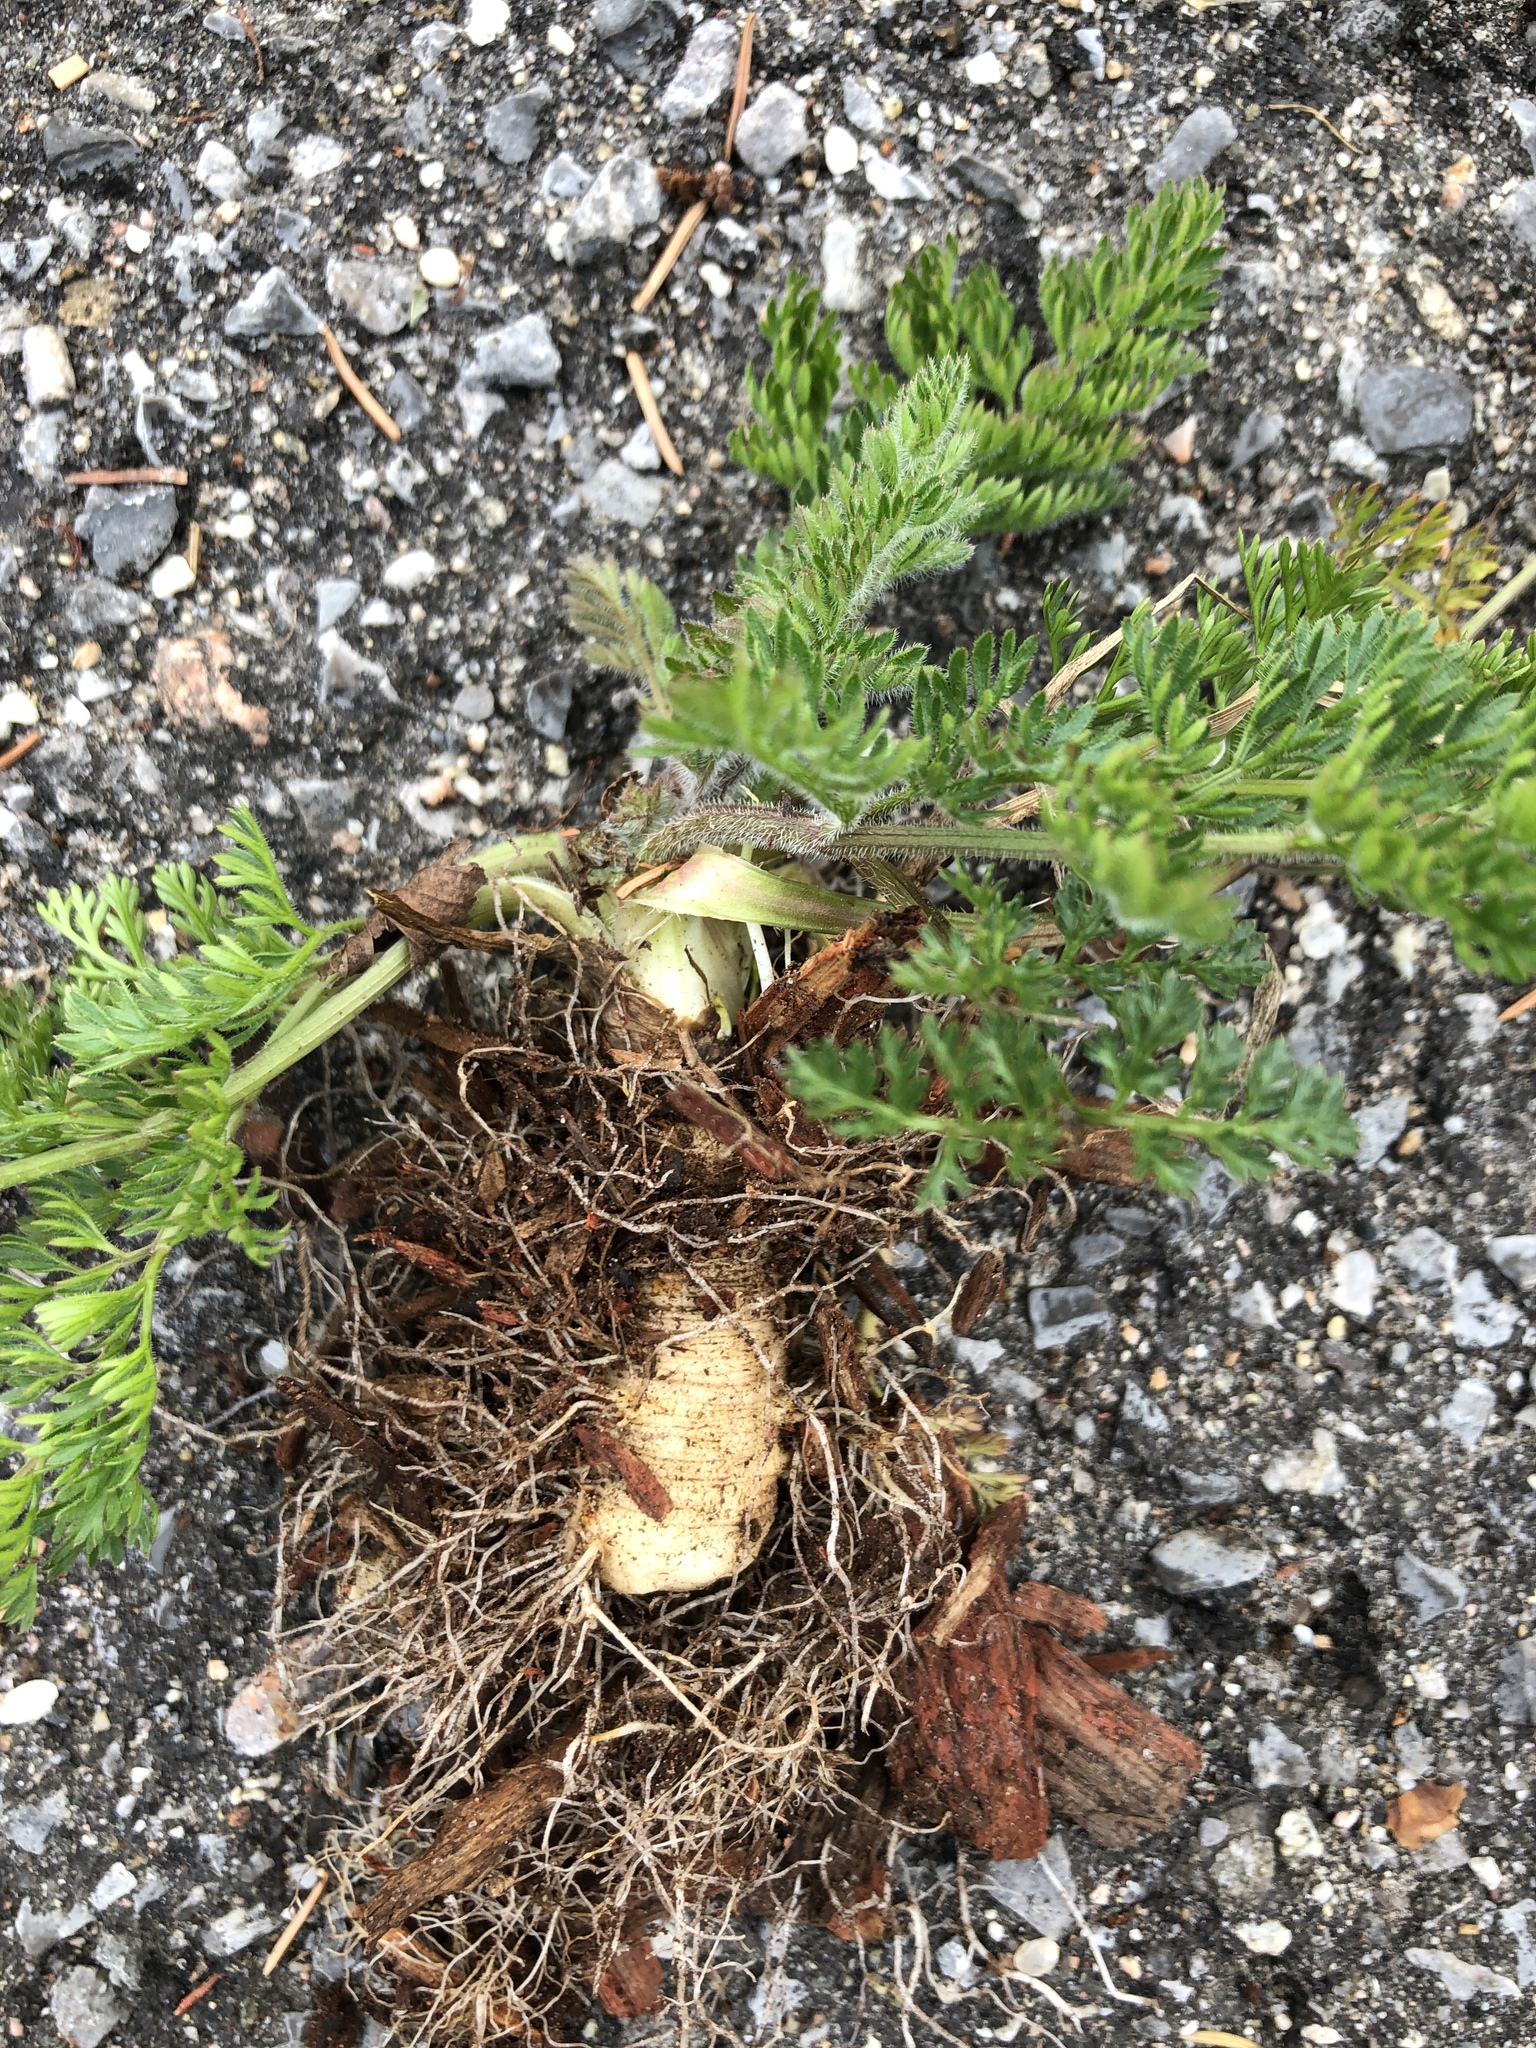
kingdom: Plantae
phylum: Tracheophyta
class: Magnoliopsida
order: Apiales
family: Apiaceae
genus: Daucus
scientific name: Daucus carota
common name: Wild carrot
